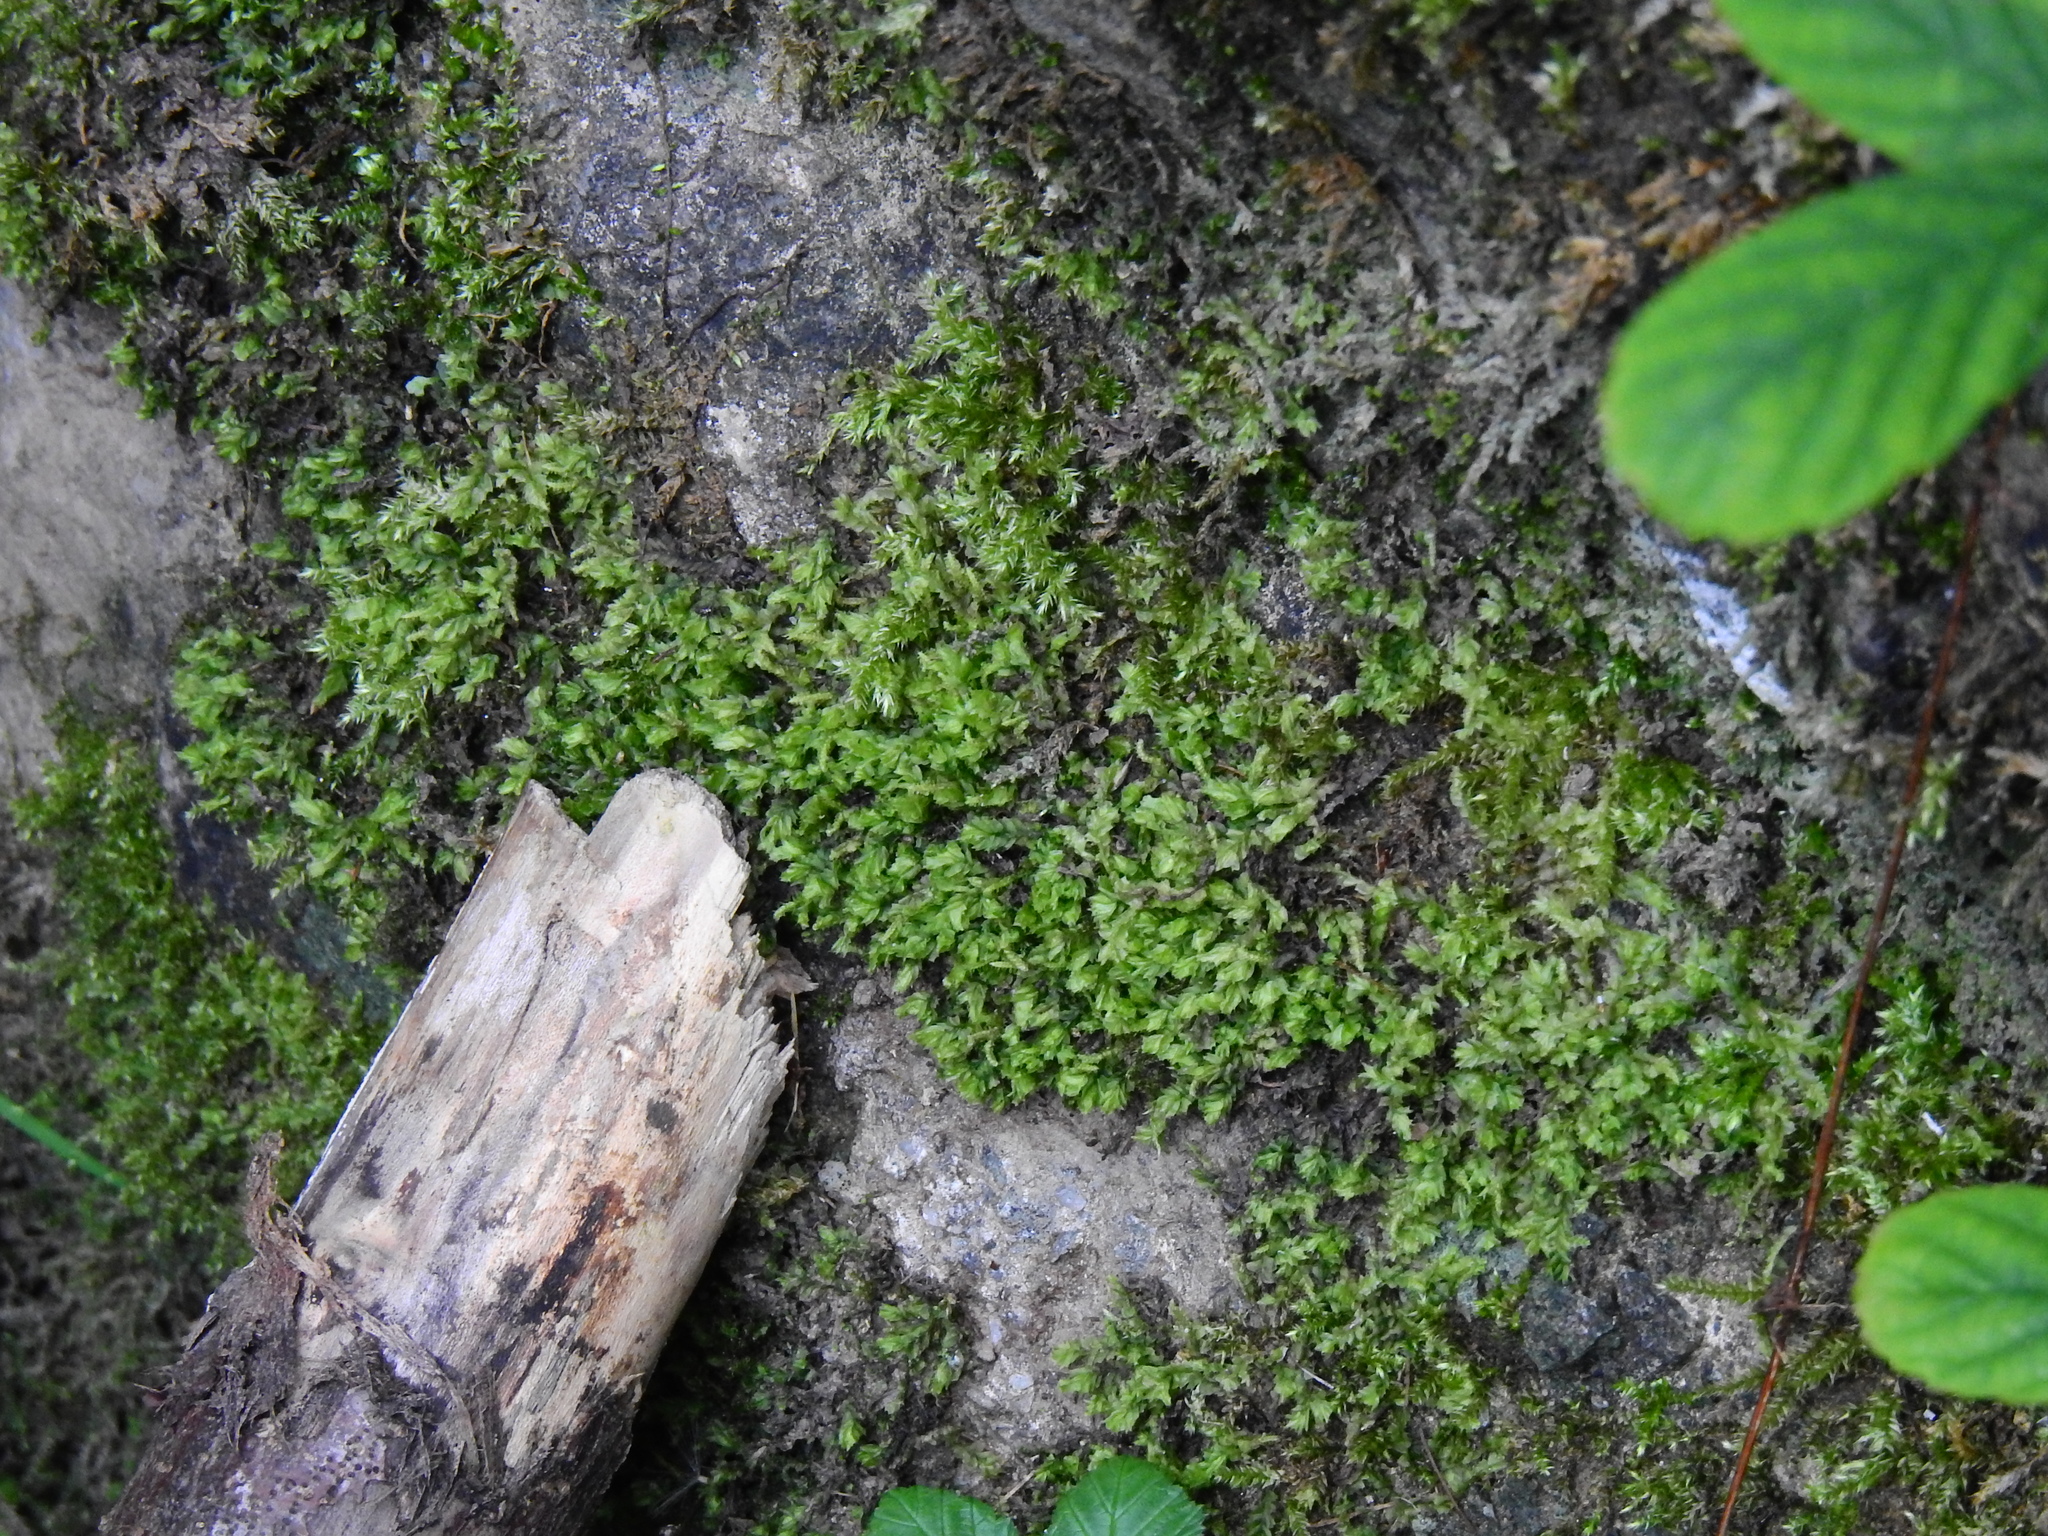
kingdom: Plantae
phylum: Marchantiophyta
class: Jungermanniopsida
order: Jungermanniales
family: Lophocoleaceae
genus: Lophocolea
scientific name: Lophocolea bidentata
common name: Bifid crestwort
